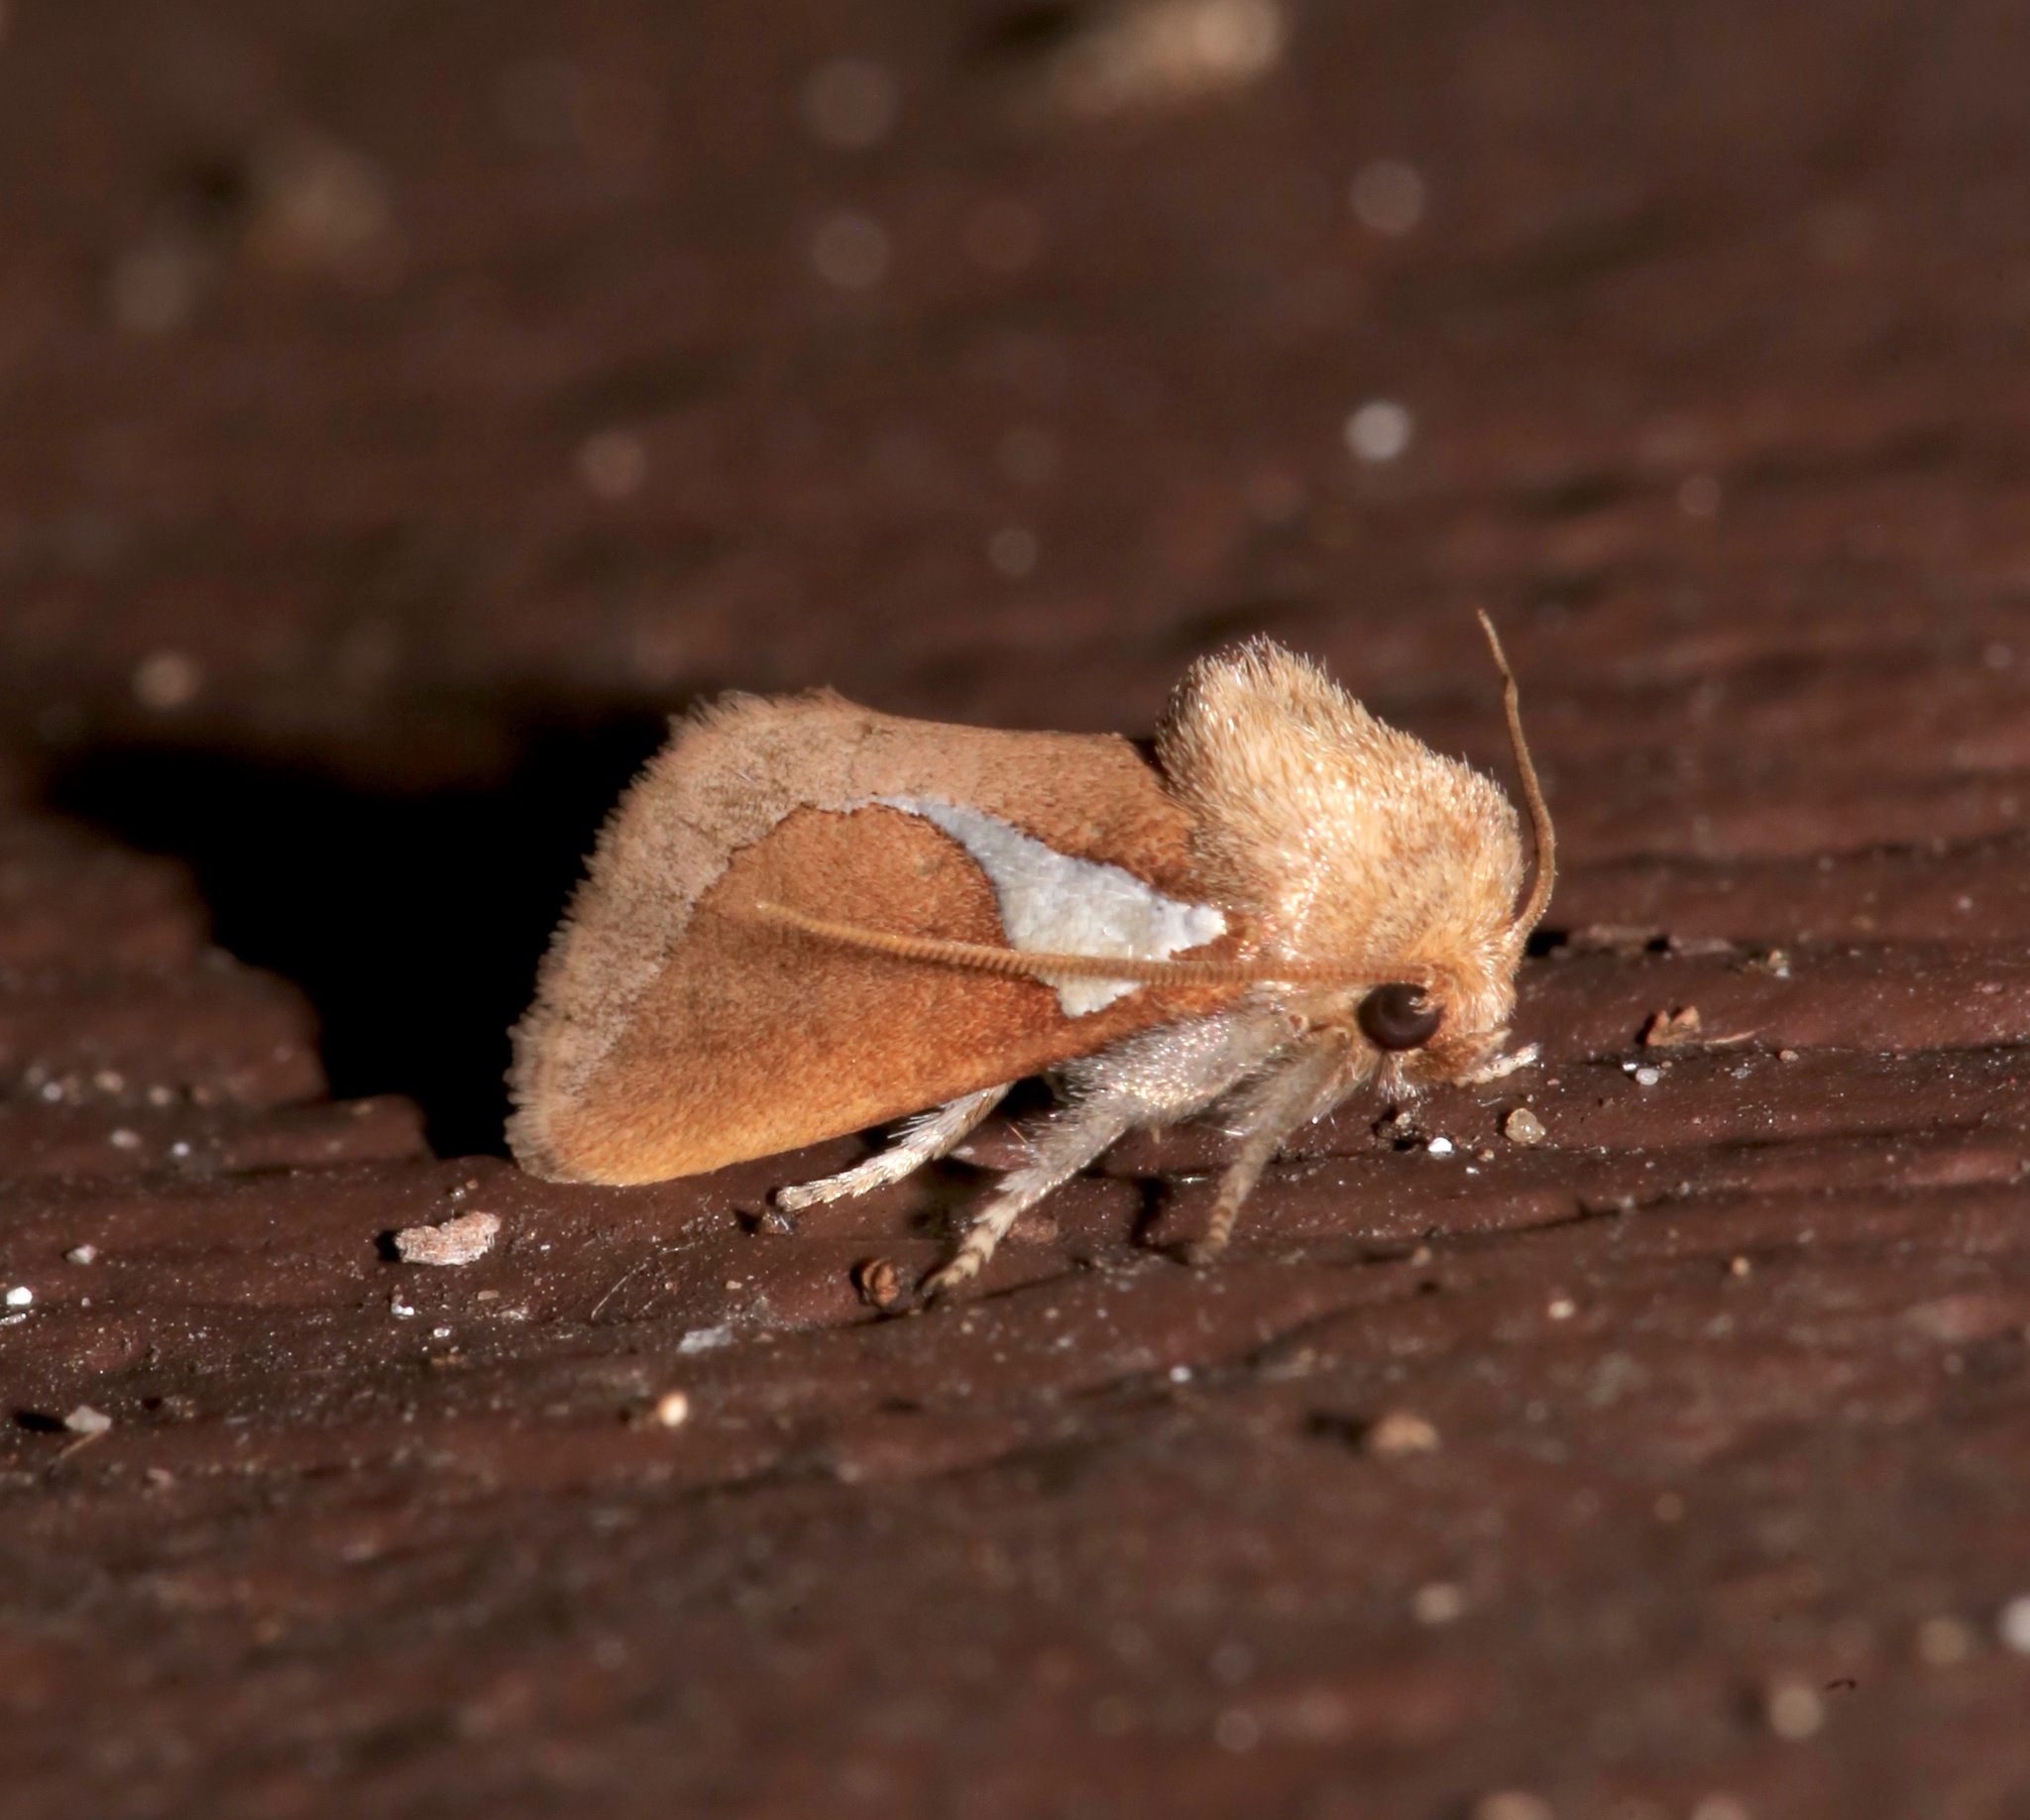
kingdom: Animalia
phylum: Arthropoda
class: Insecta
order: Lepidoptera
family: Limacodidae
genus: Prolimacodes
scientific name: Prolimacodes trigona
